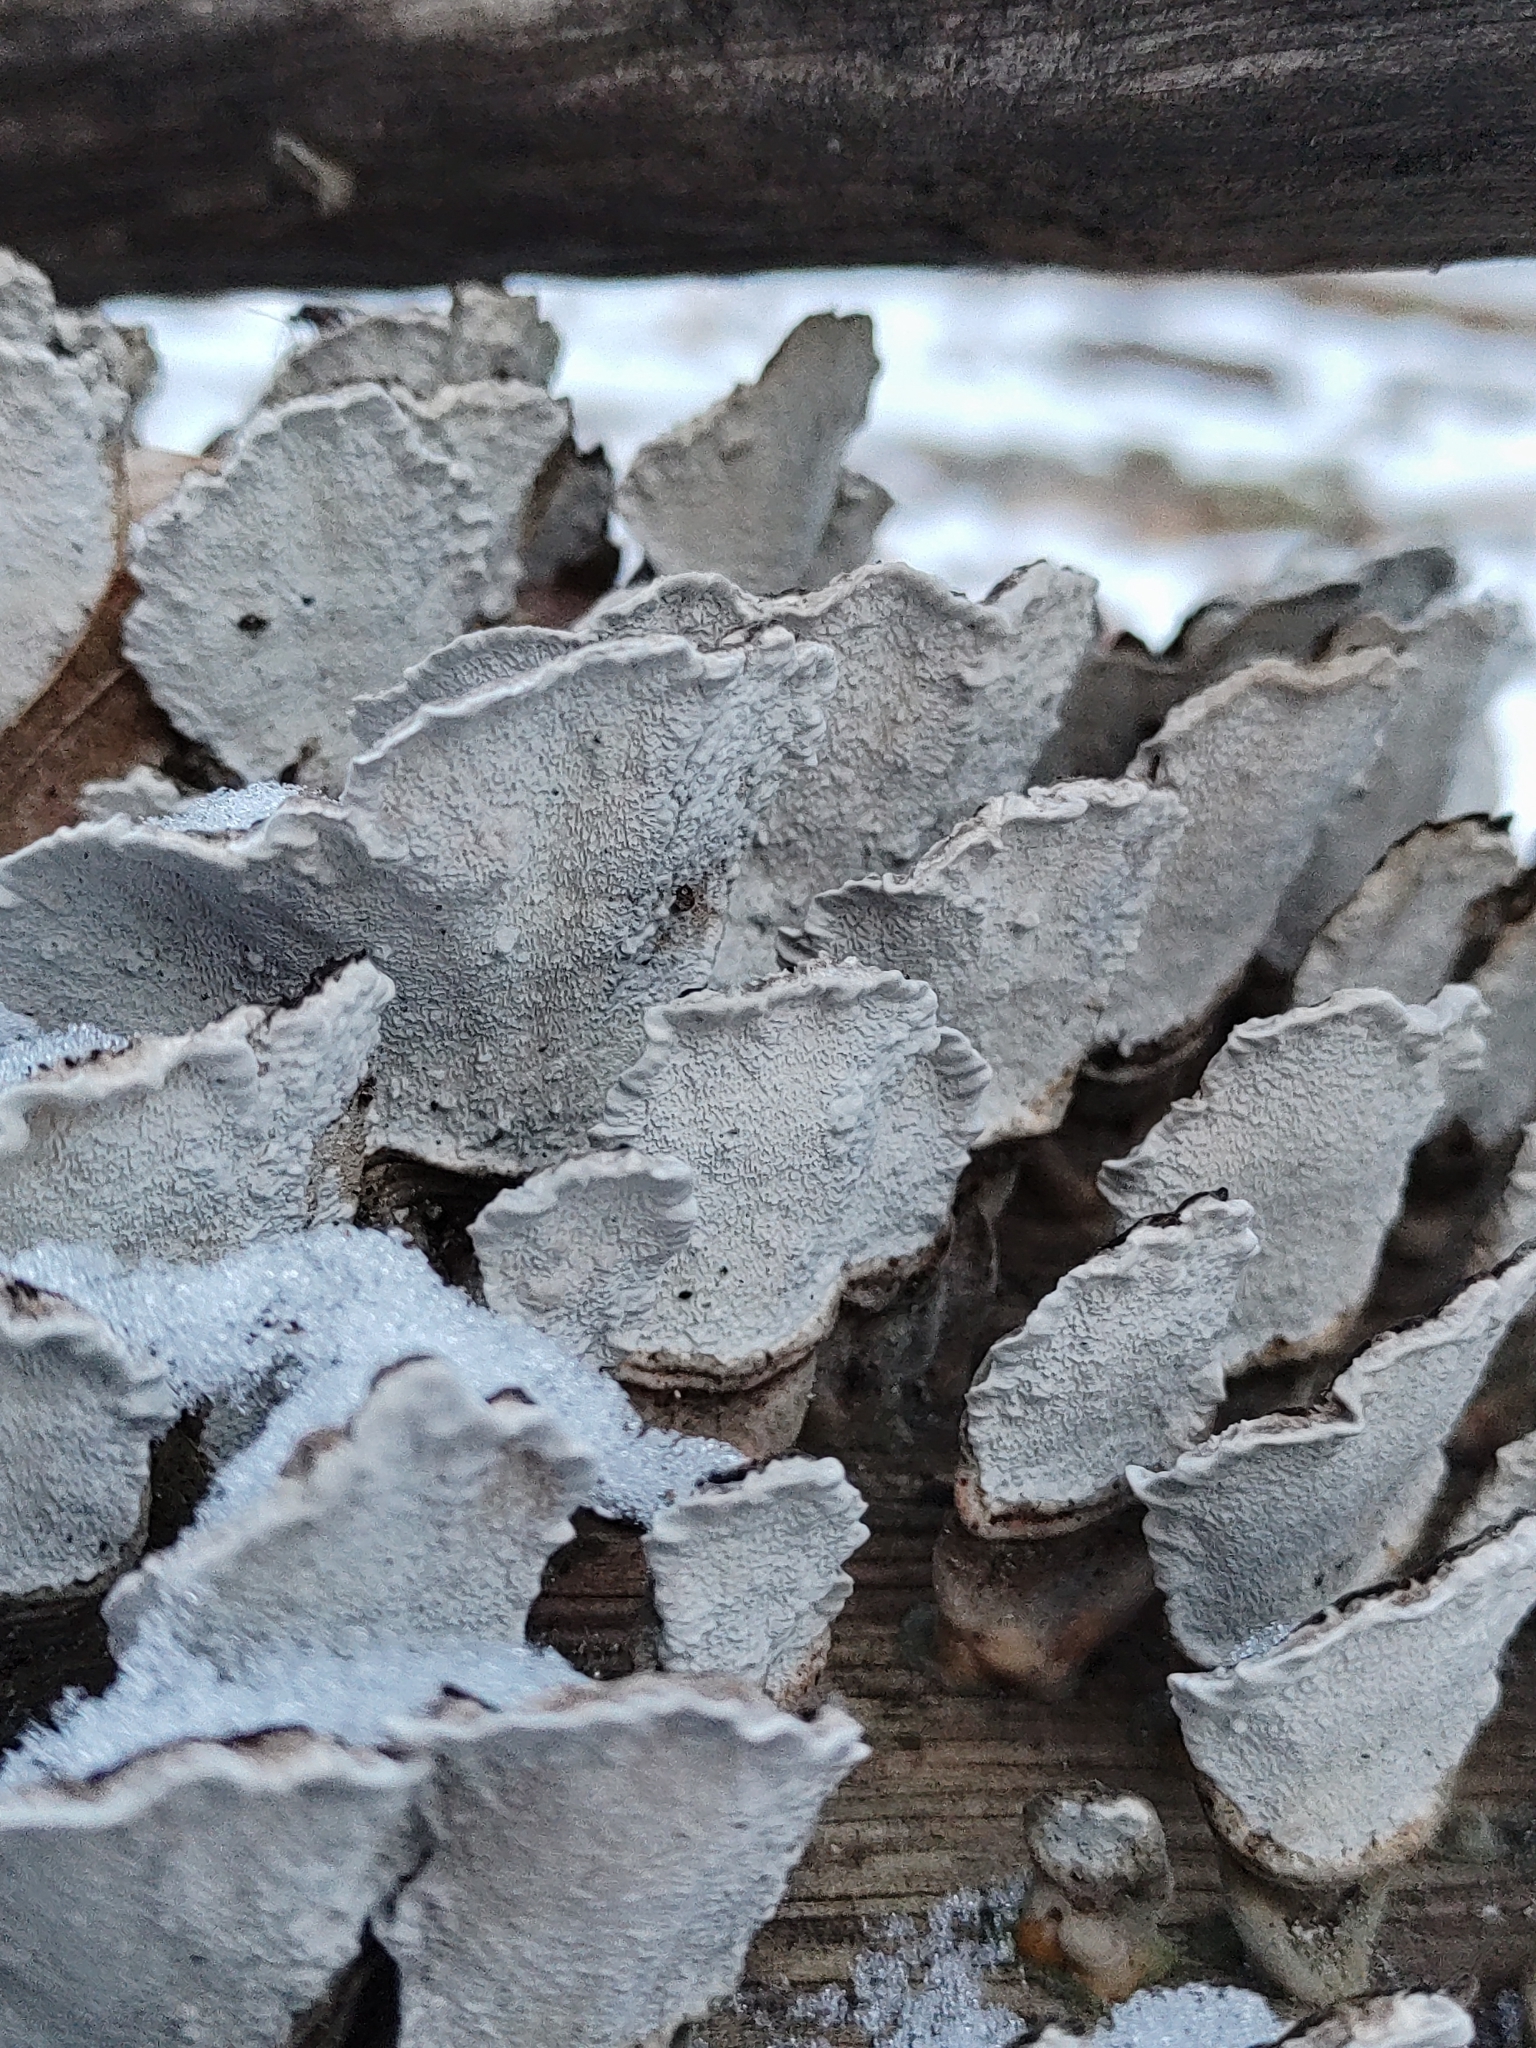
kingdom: Fungi
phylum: Basidiomycota
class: Agaricomycetes
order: Polyporales
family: Polyporaceae
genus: Trametes
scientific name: Trametes versicolor
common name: Turkeytail
